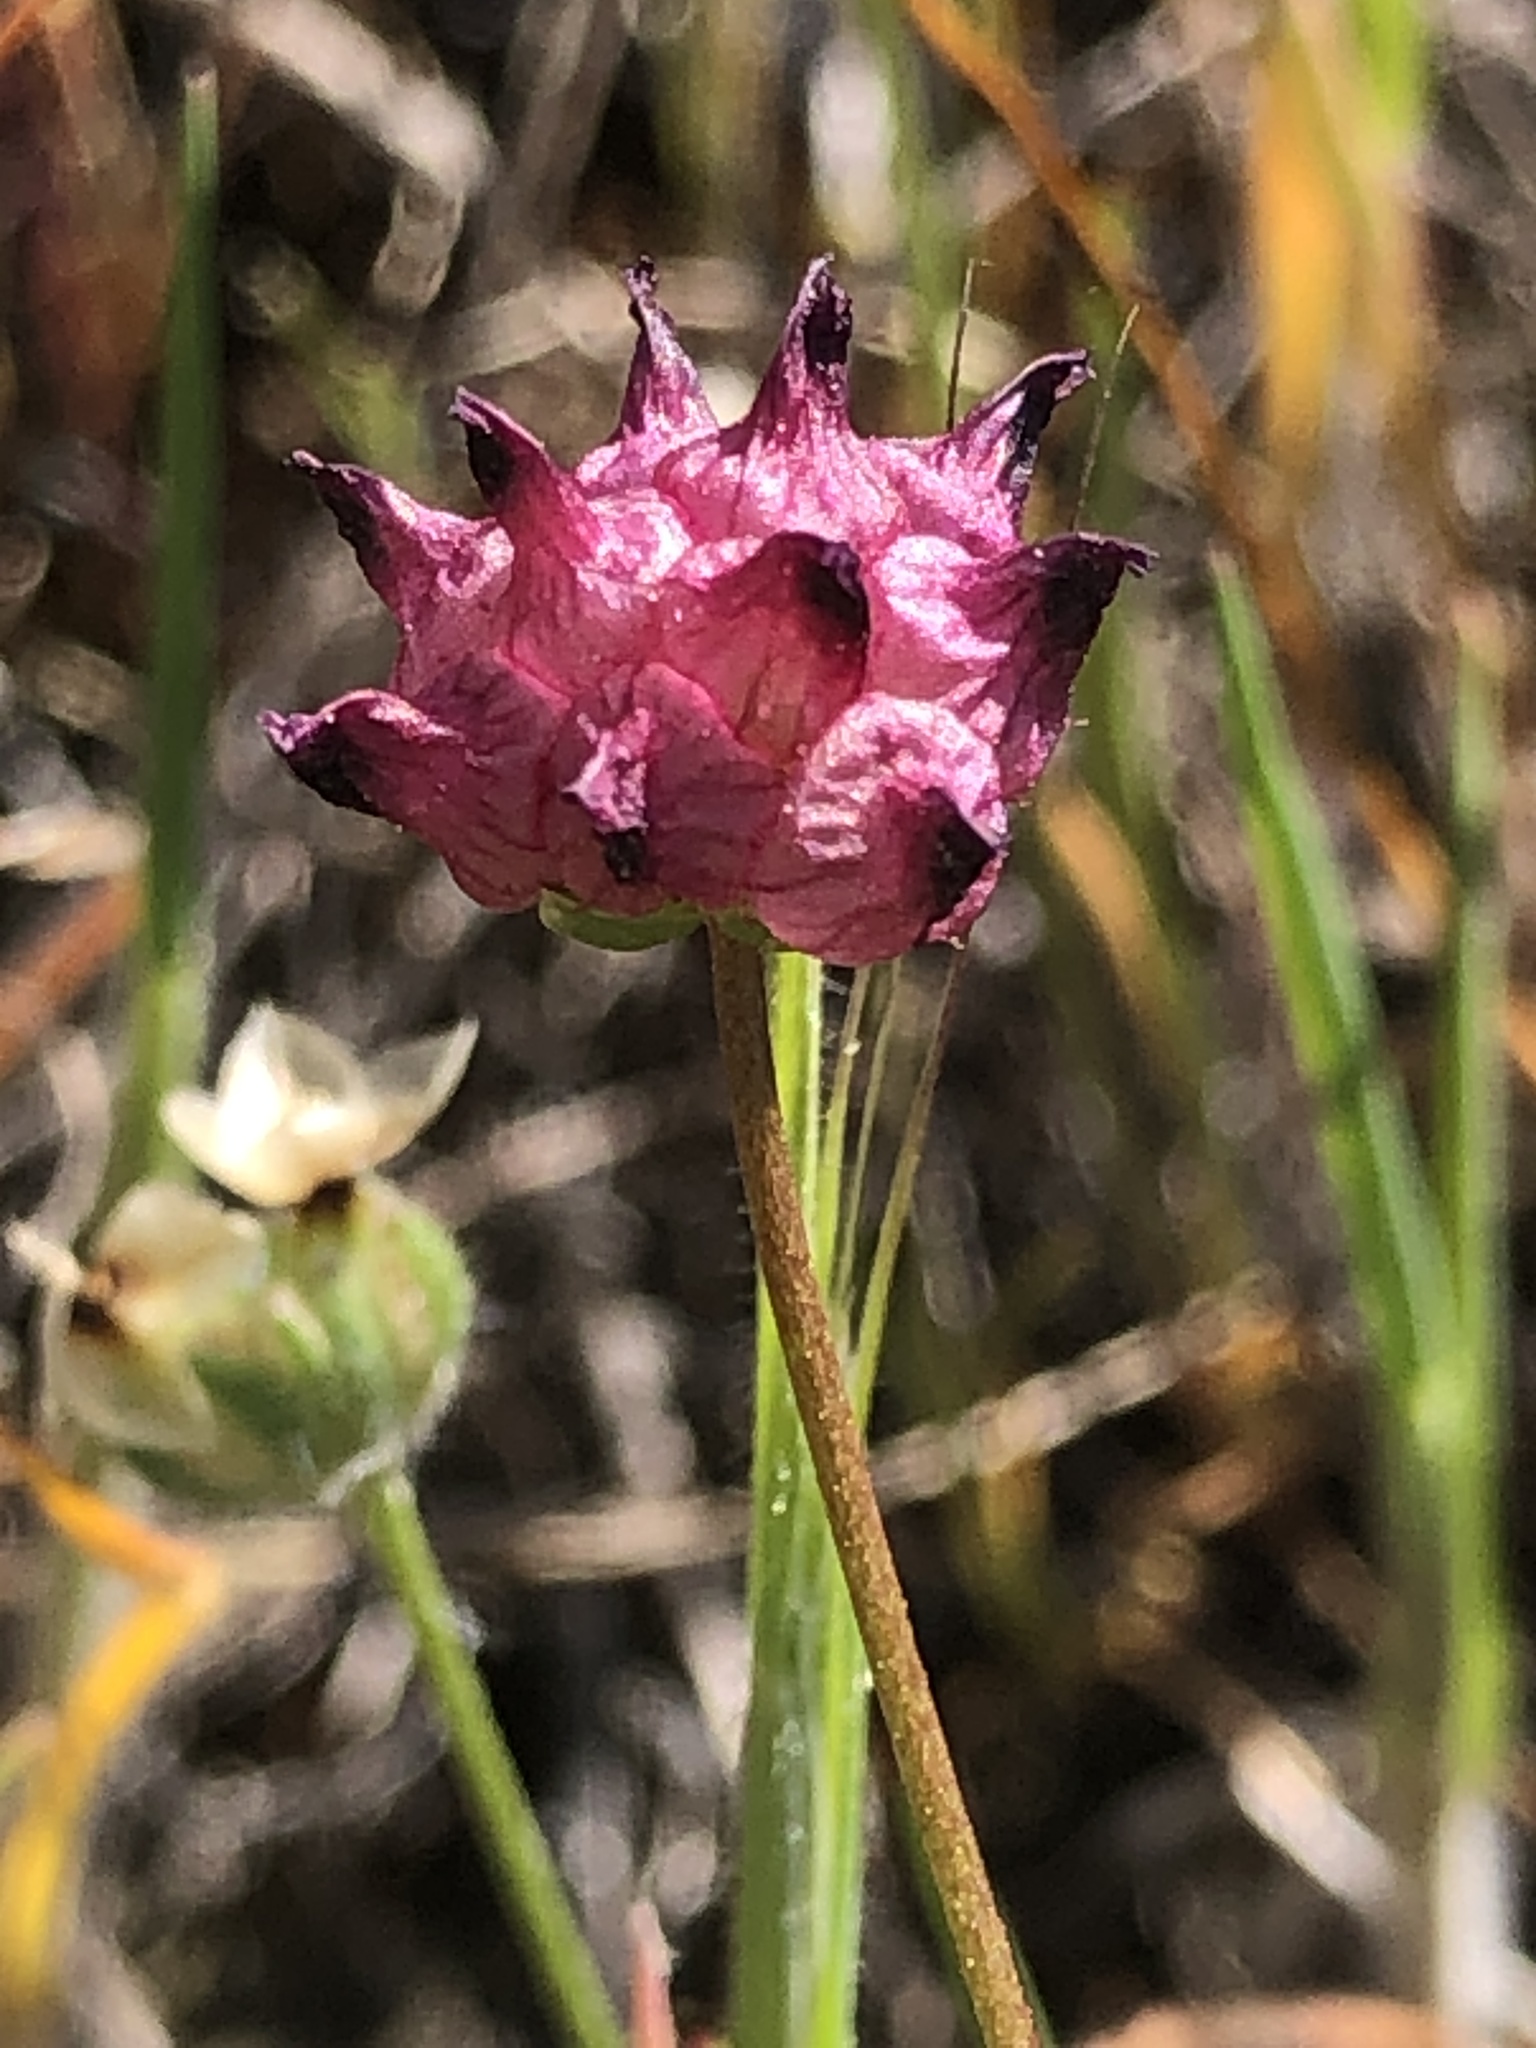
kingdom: Plantae
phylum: Tracheophyta
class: Magnoliopsida
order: Fabales
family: Fabaceae
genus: Trifolium
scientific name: Trifolium depauperatum
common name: Poverty clover
